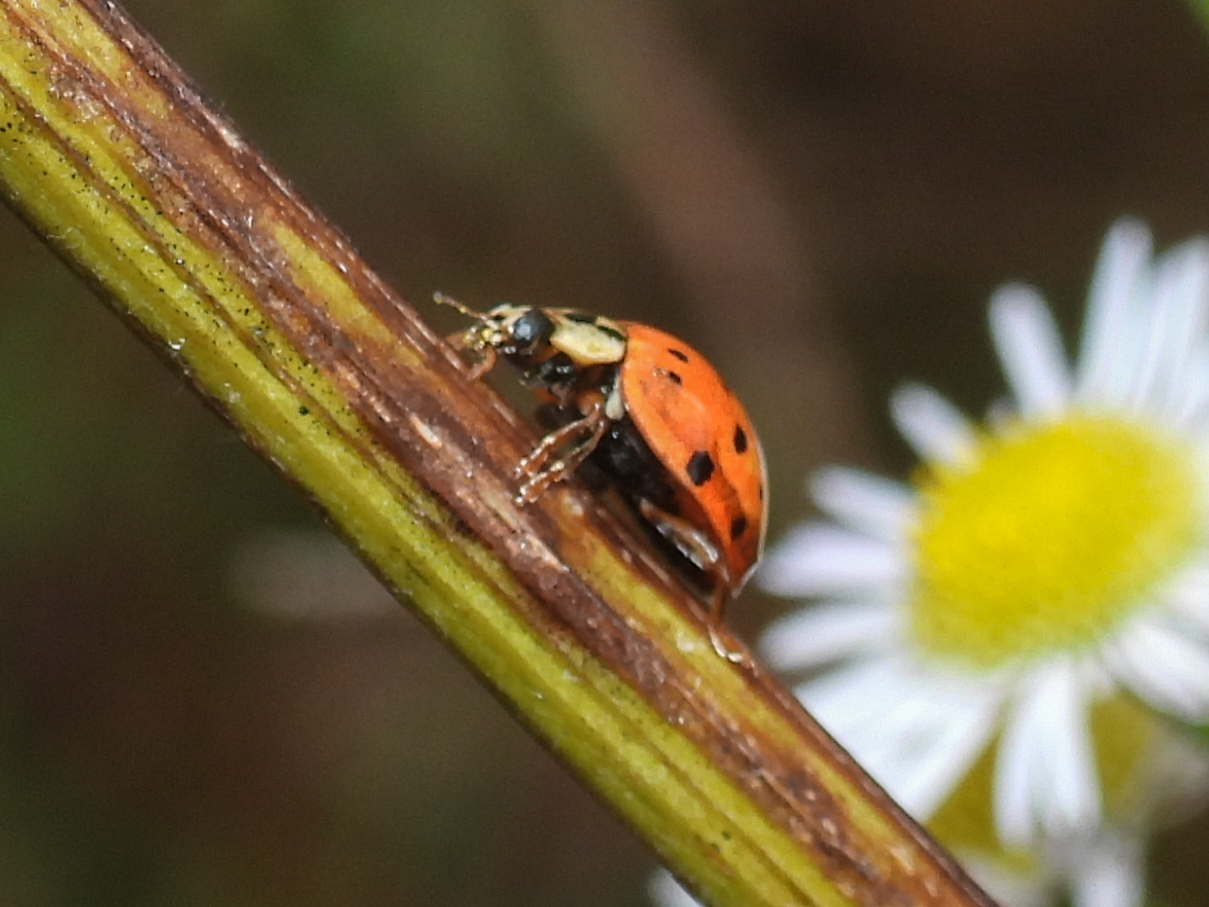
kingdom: Animalia
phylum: Arthropoda
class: Insecta
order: Coleoptera
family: Coccinellidae
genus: Harmonia
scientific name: Harmonia axyridis
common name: Harlequin ladybird
